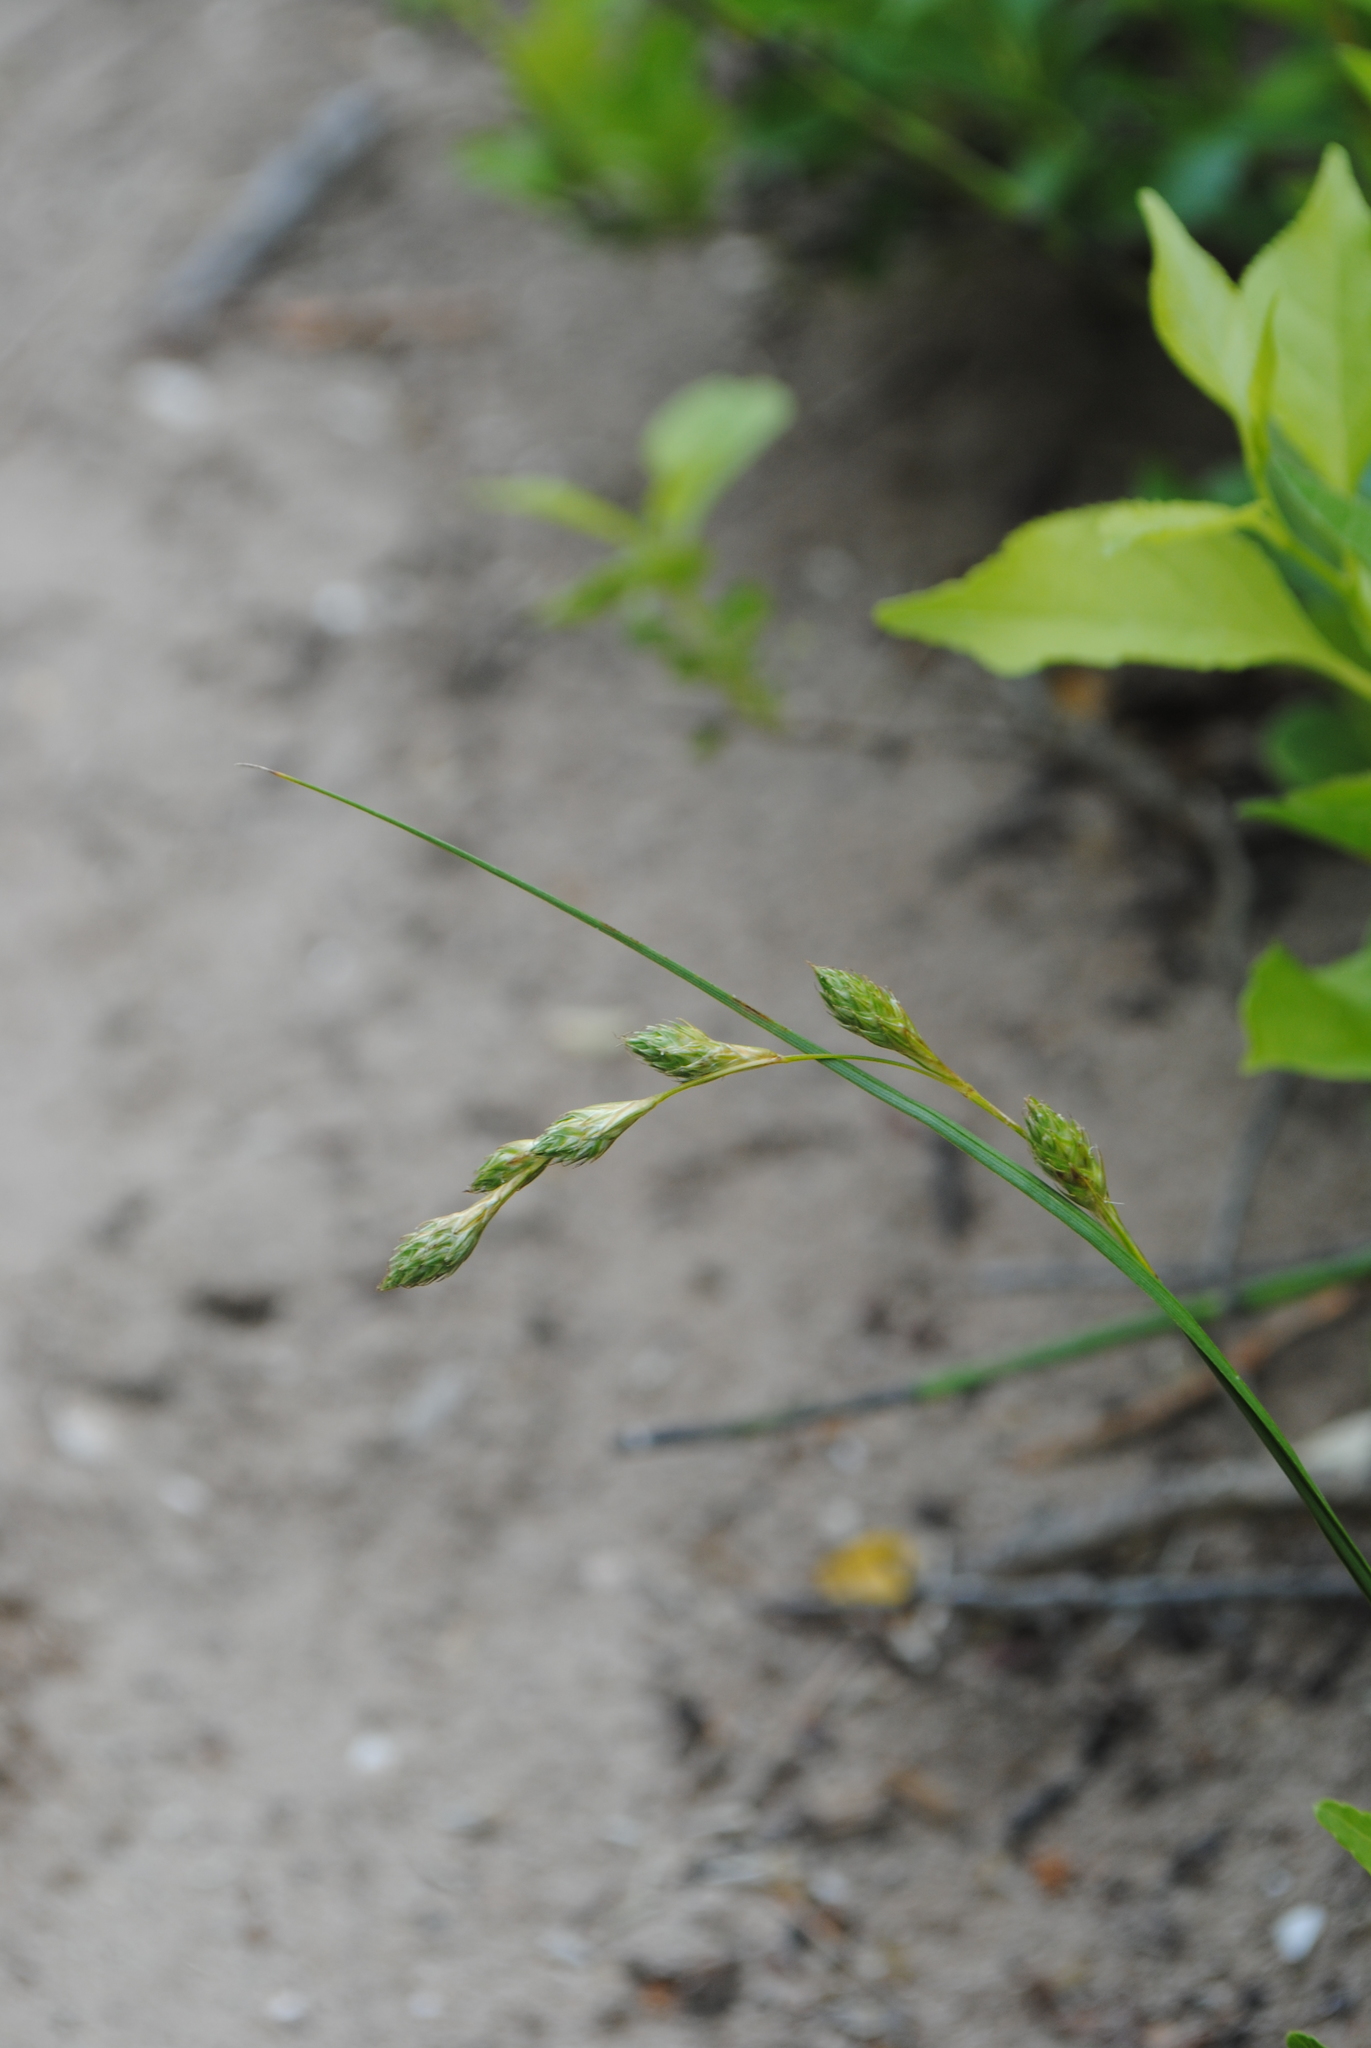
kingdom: Plantae
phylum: Tracheophyta
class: Liliopsida
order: Poales
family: Cyperaceae
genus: Carex
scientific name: Carex silicea
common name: Beach sedge
